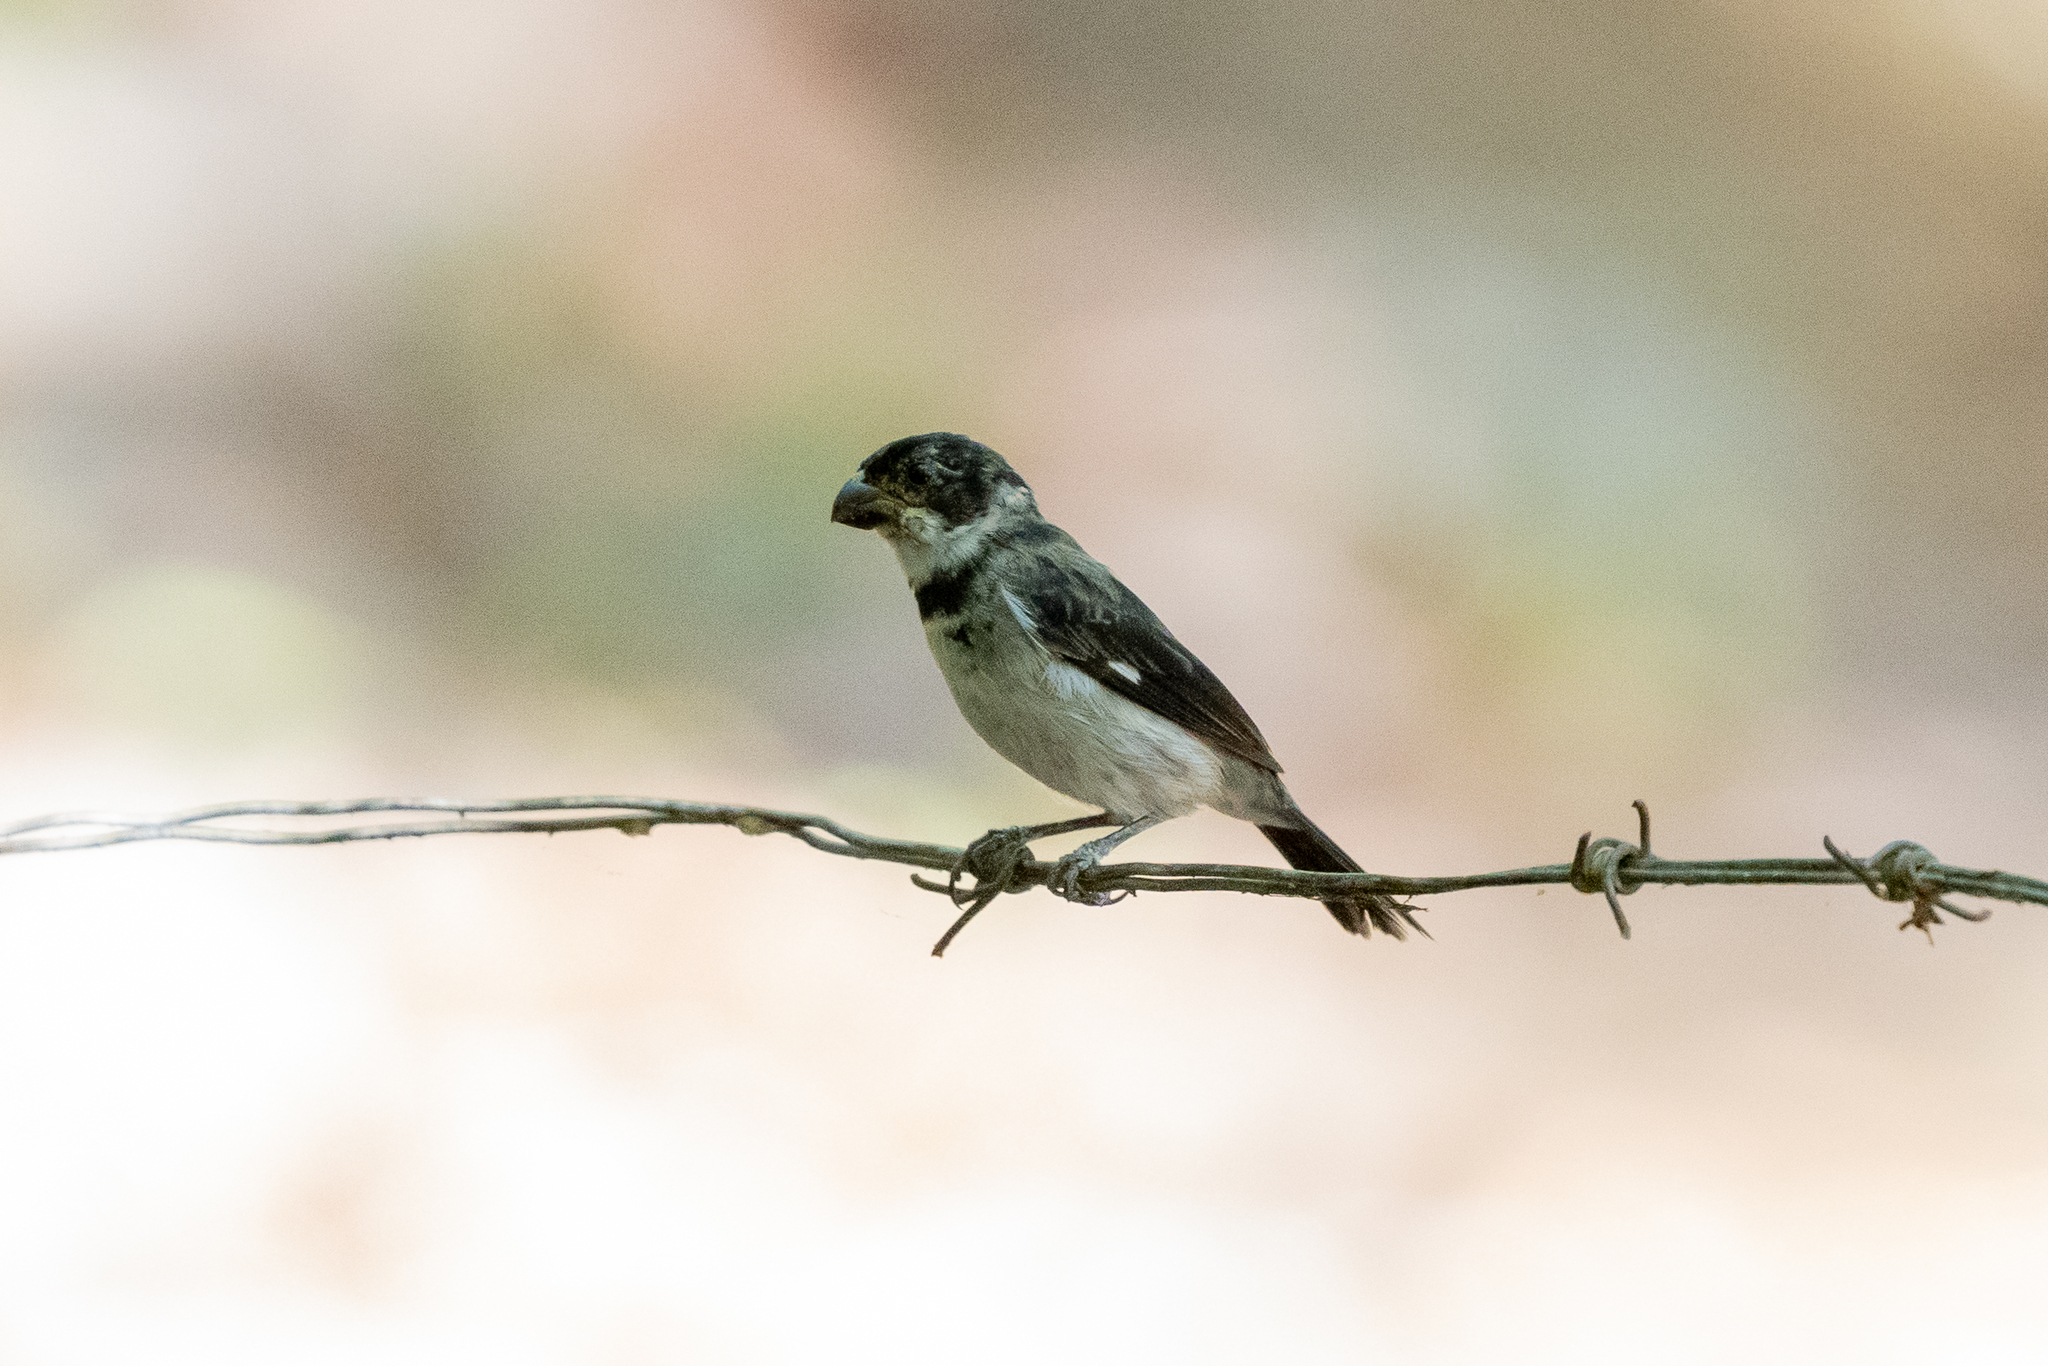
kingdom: Animalia
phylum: Chordata
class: Aves
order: Passeriformes
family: Thraupidae
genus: Sporophila
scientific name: Sporophila corvina
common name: Variable seedeater
